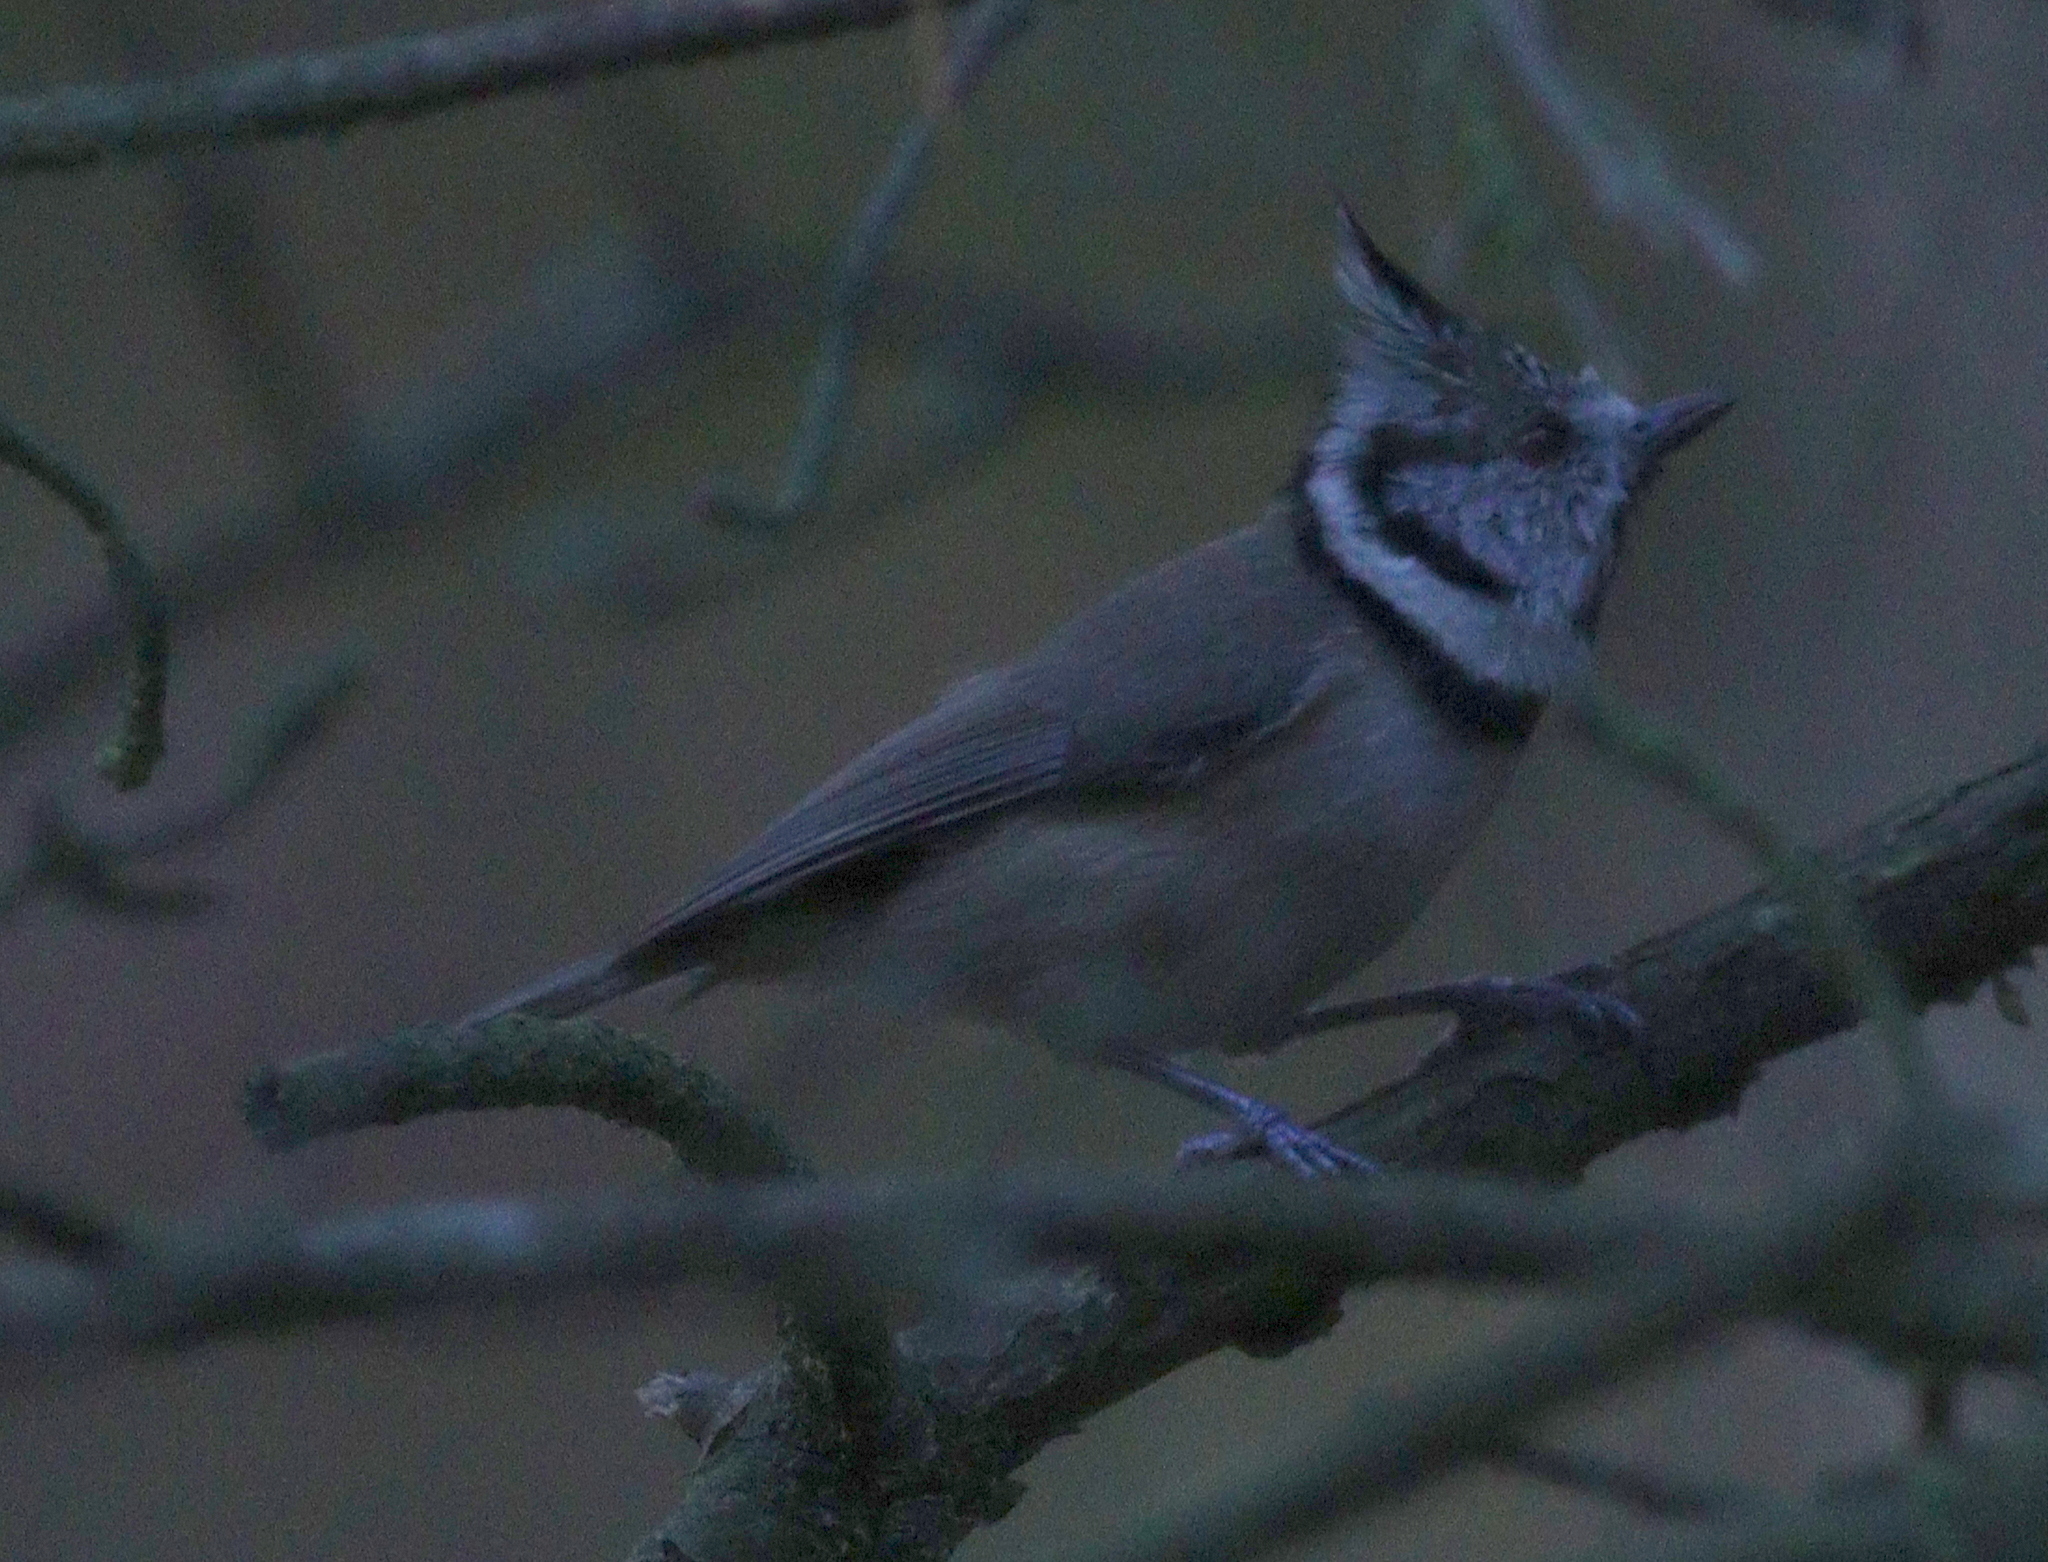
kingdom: Animalia
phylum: Chordata
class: Aves
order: Passeriformes
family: Paridae
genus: Lophophanes
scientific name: Lophophanes cristatus
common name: European crested tit
